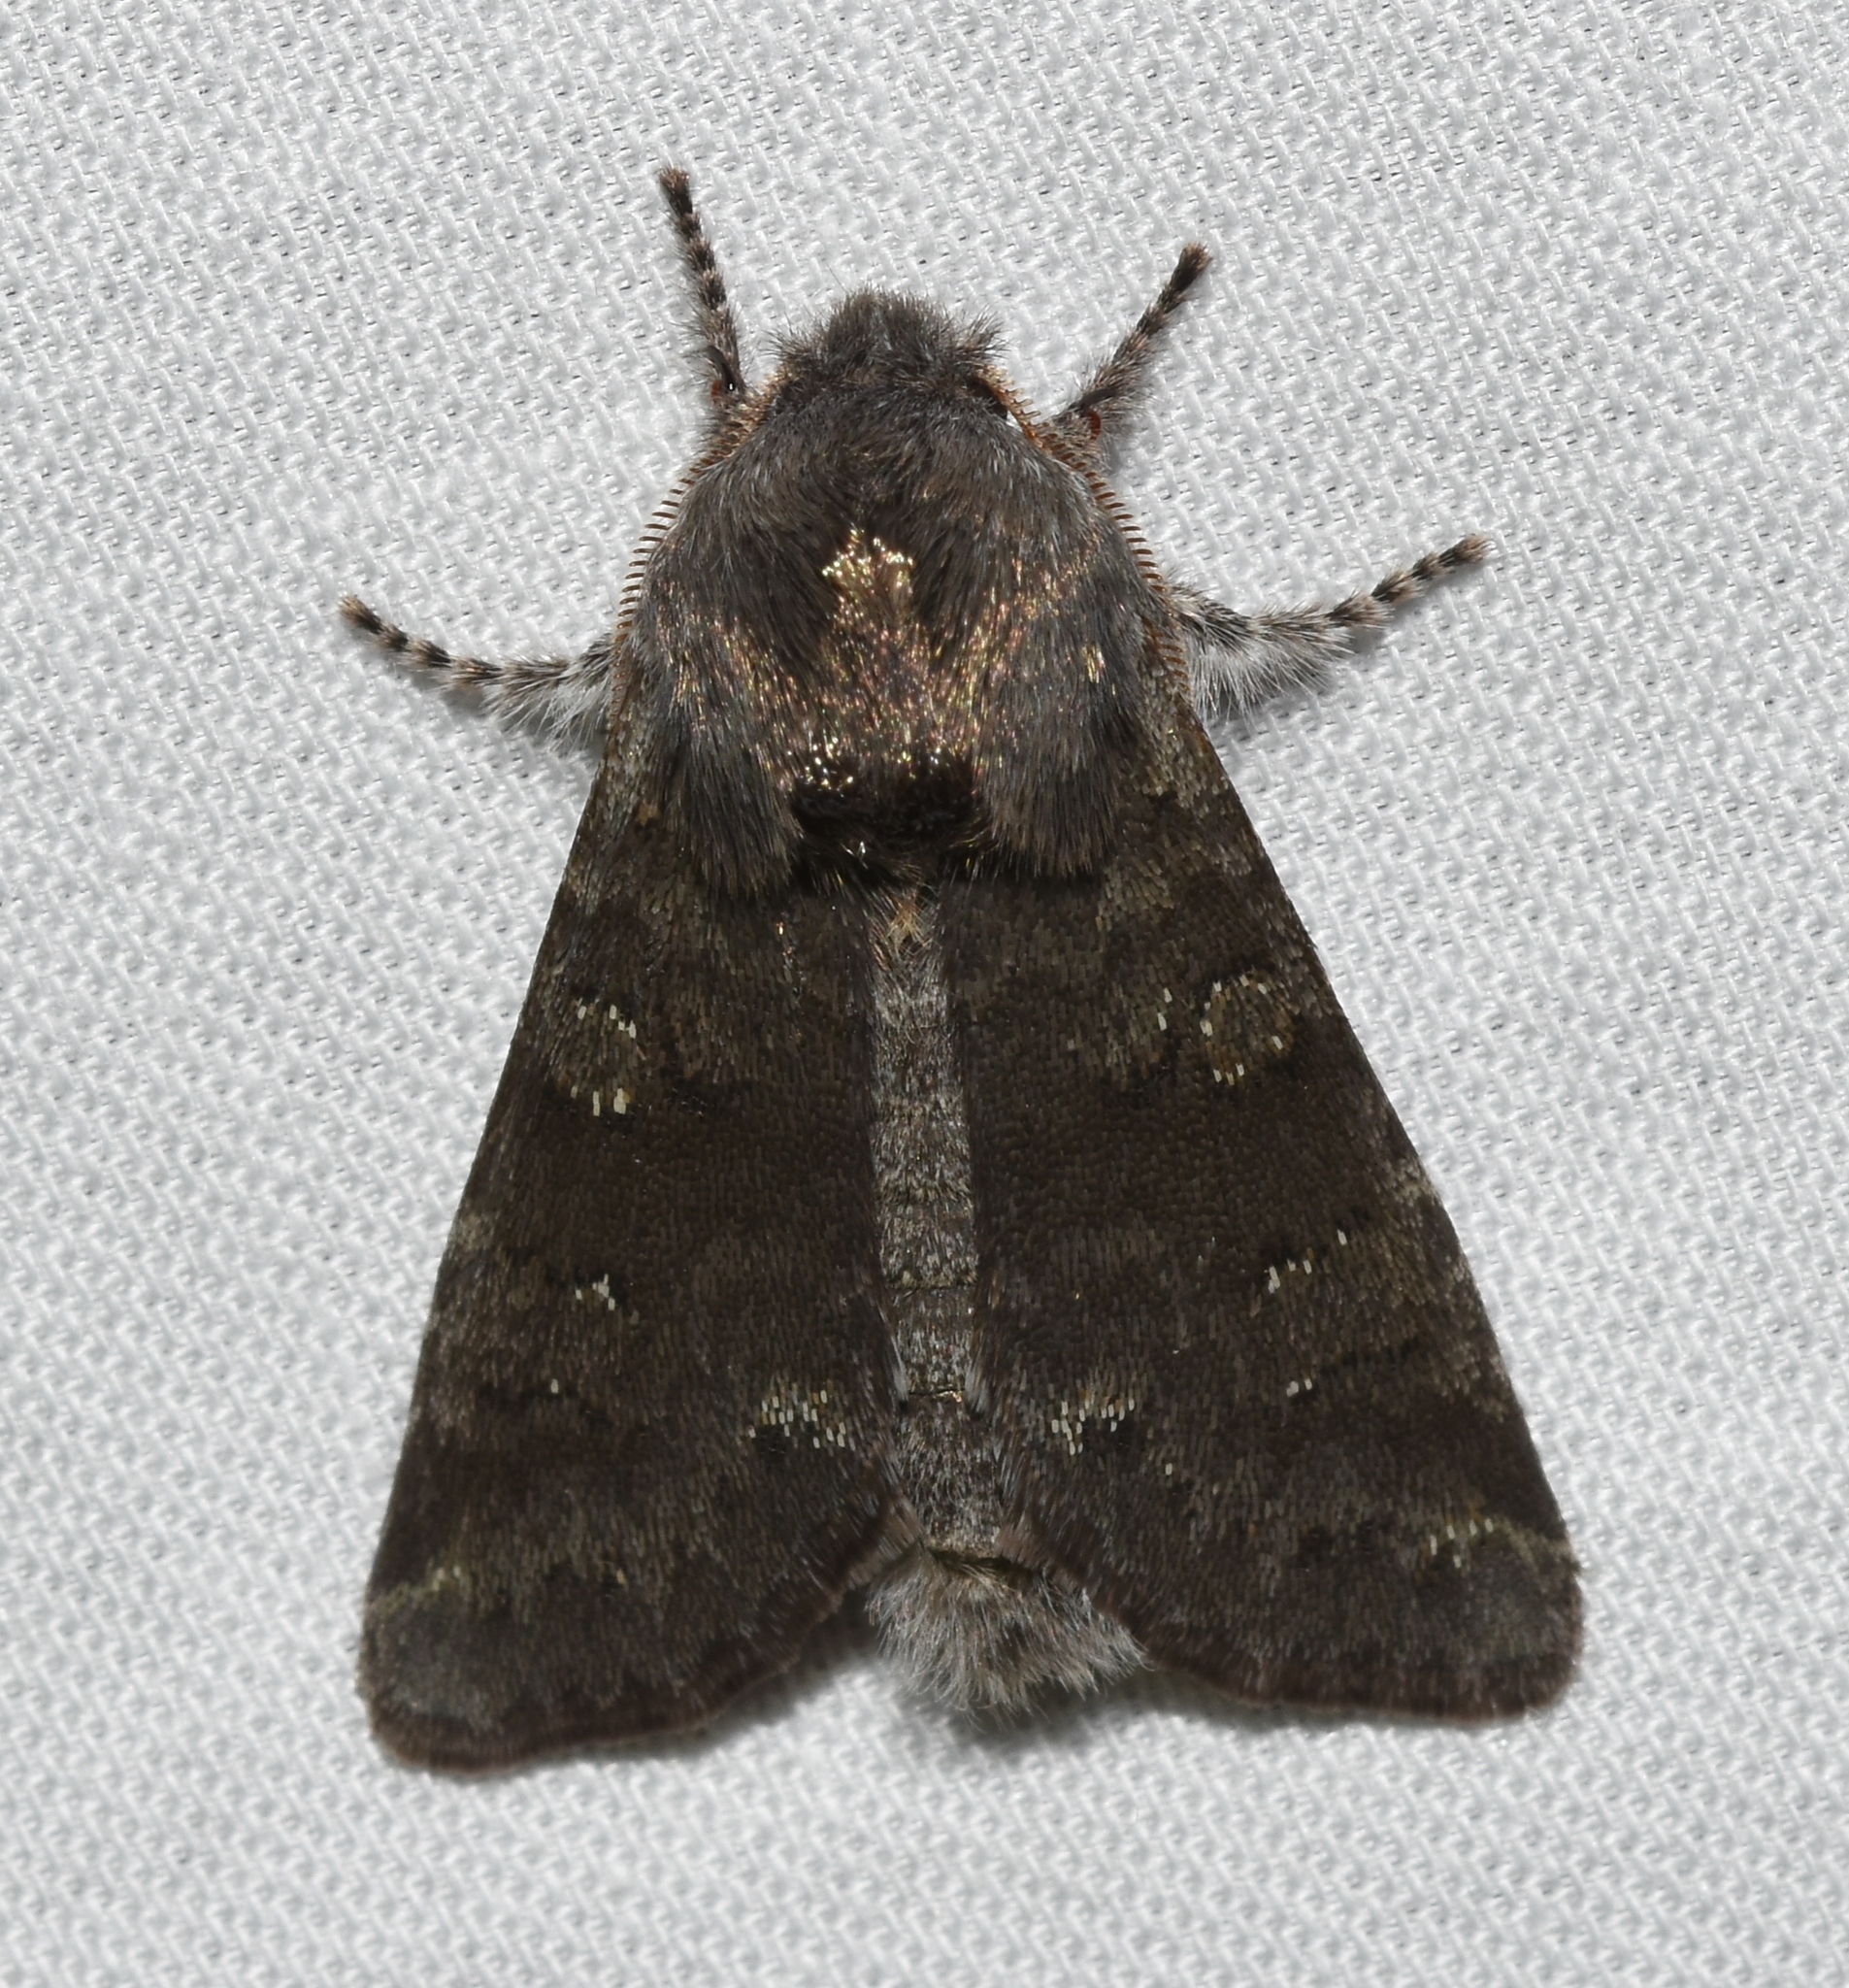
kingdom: Animalia
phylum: Arthropoda
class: Insecta
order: Lepidoptera
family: Noctuidae
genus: Psaphida
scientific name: Psaphida rolandi
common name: Roland's sallow
